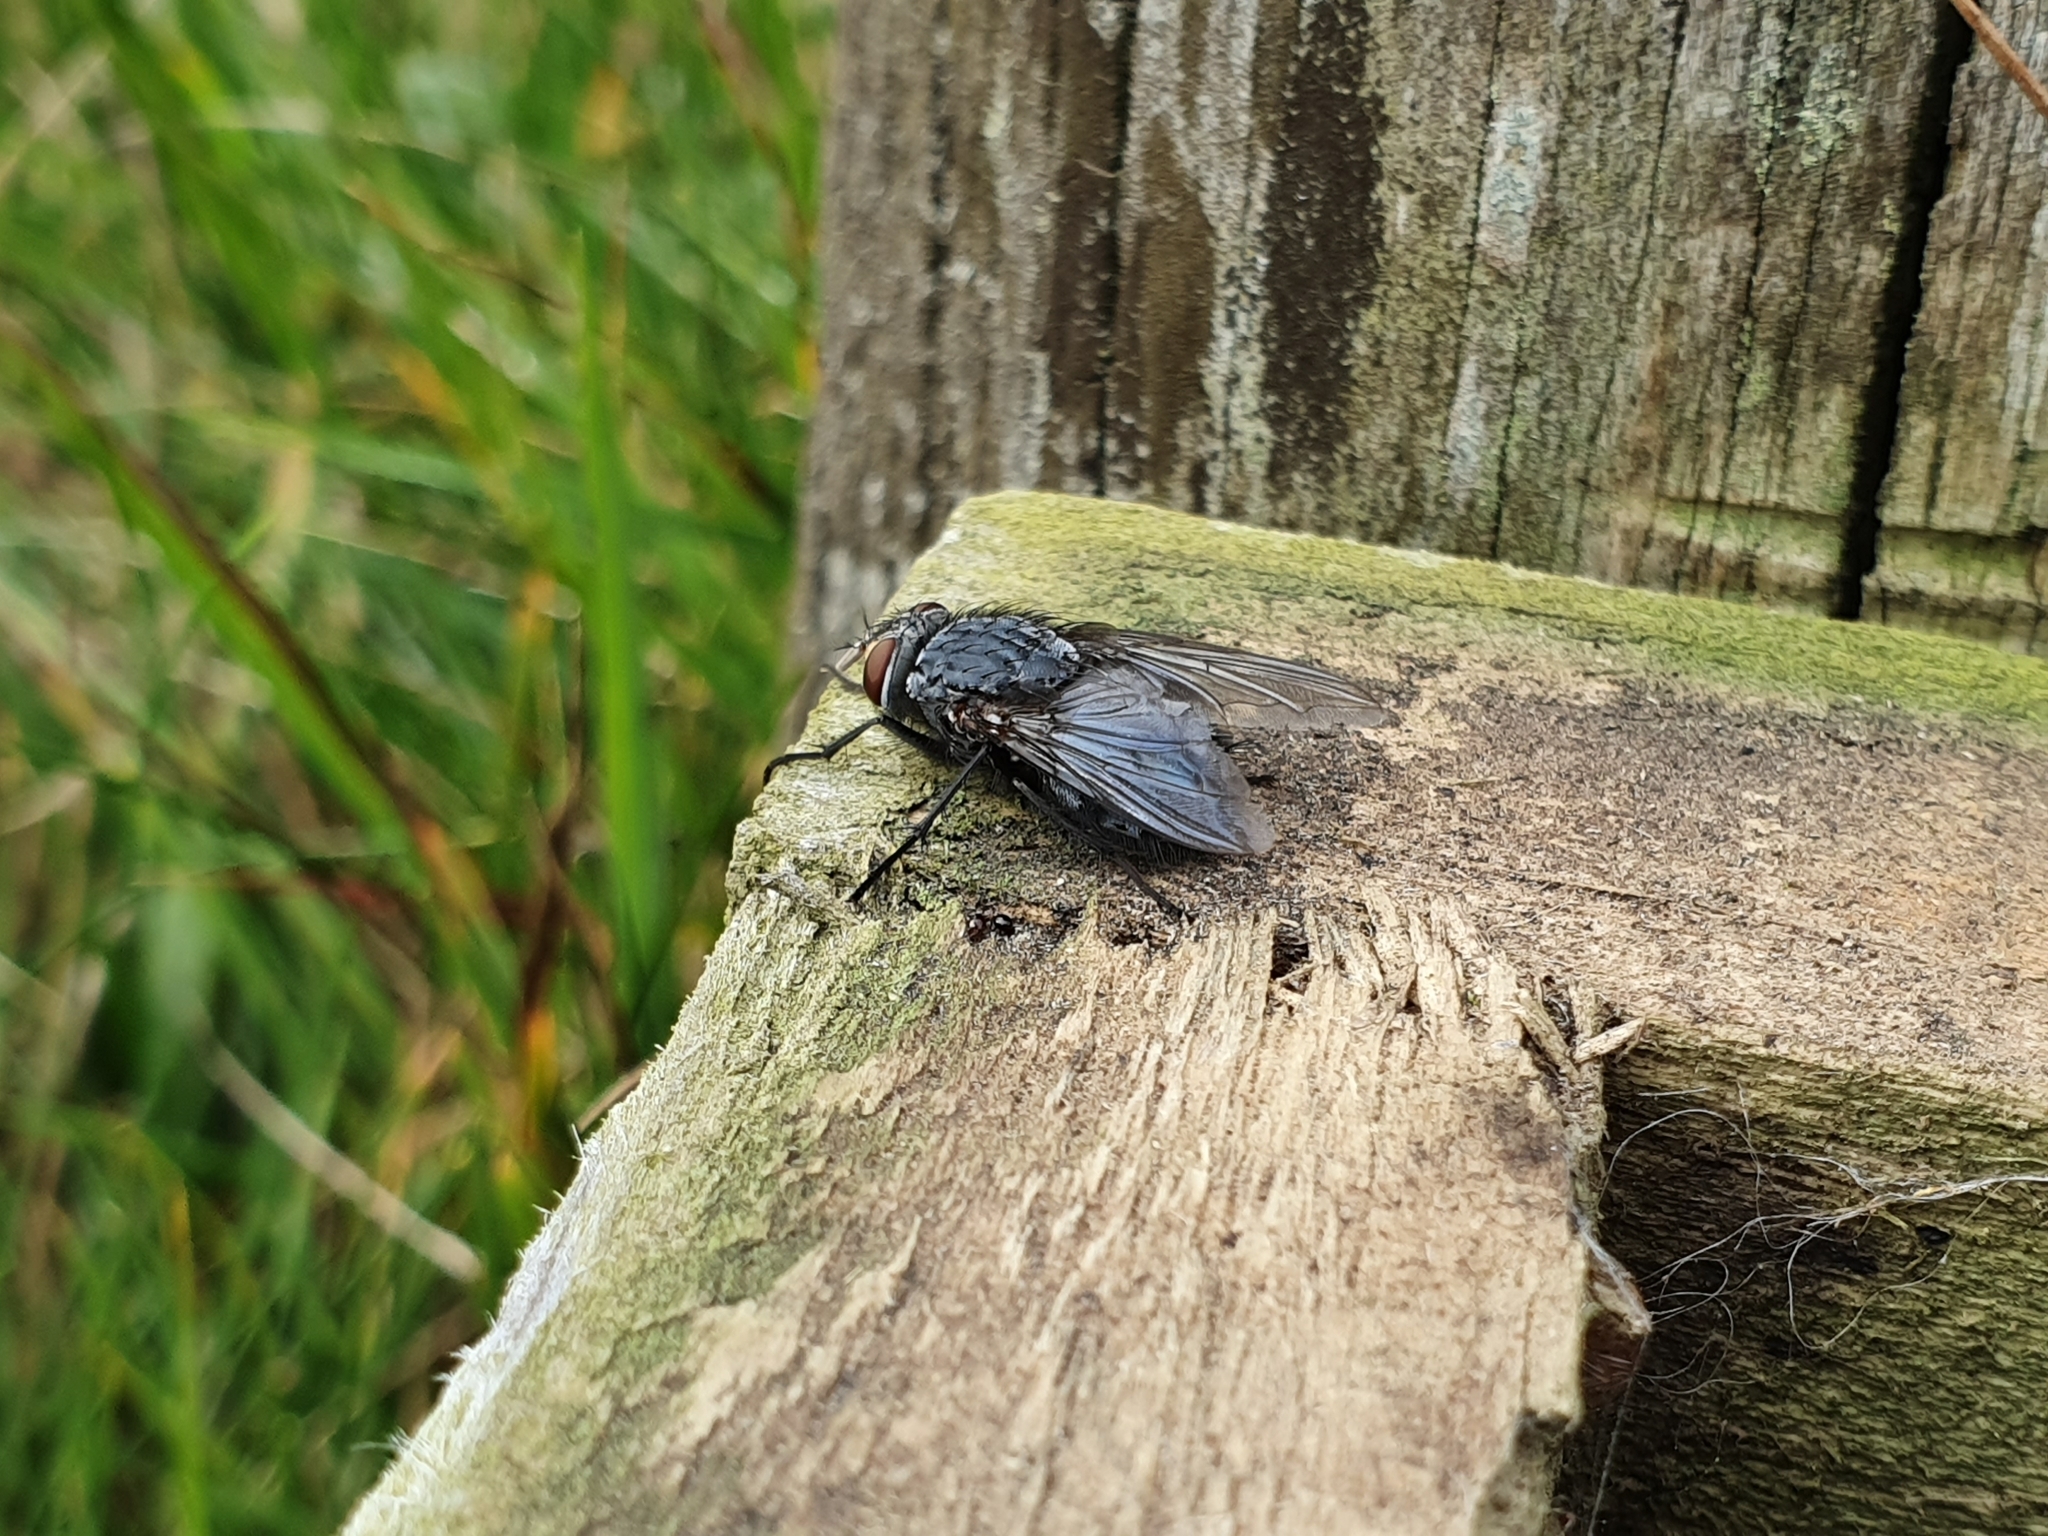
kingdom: Animalia
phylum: Arthropoda
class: Insecta
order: Diptera
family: Calliphoridae
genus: Calliphora
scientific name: Calliphora vicina
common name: Common blow flie
